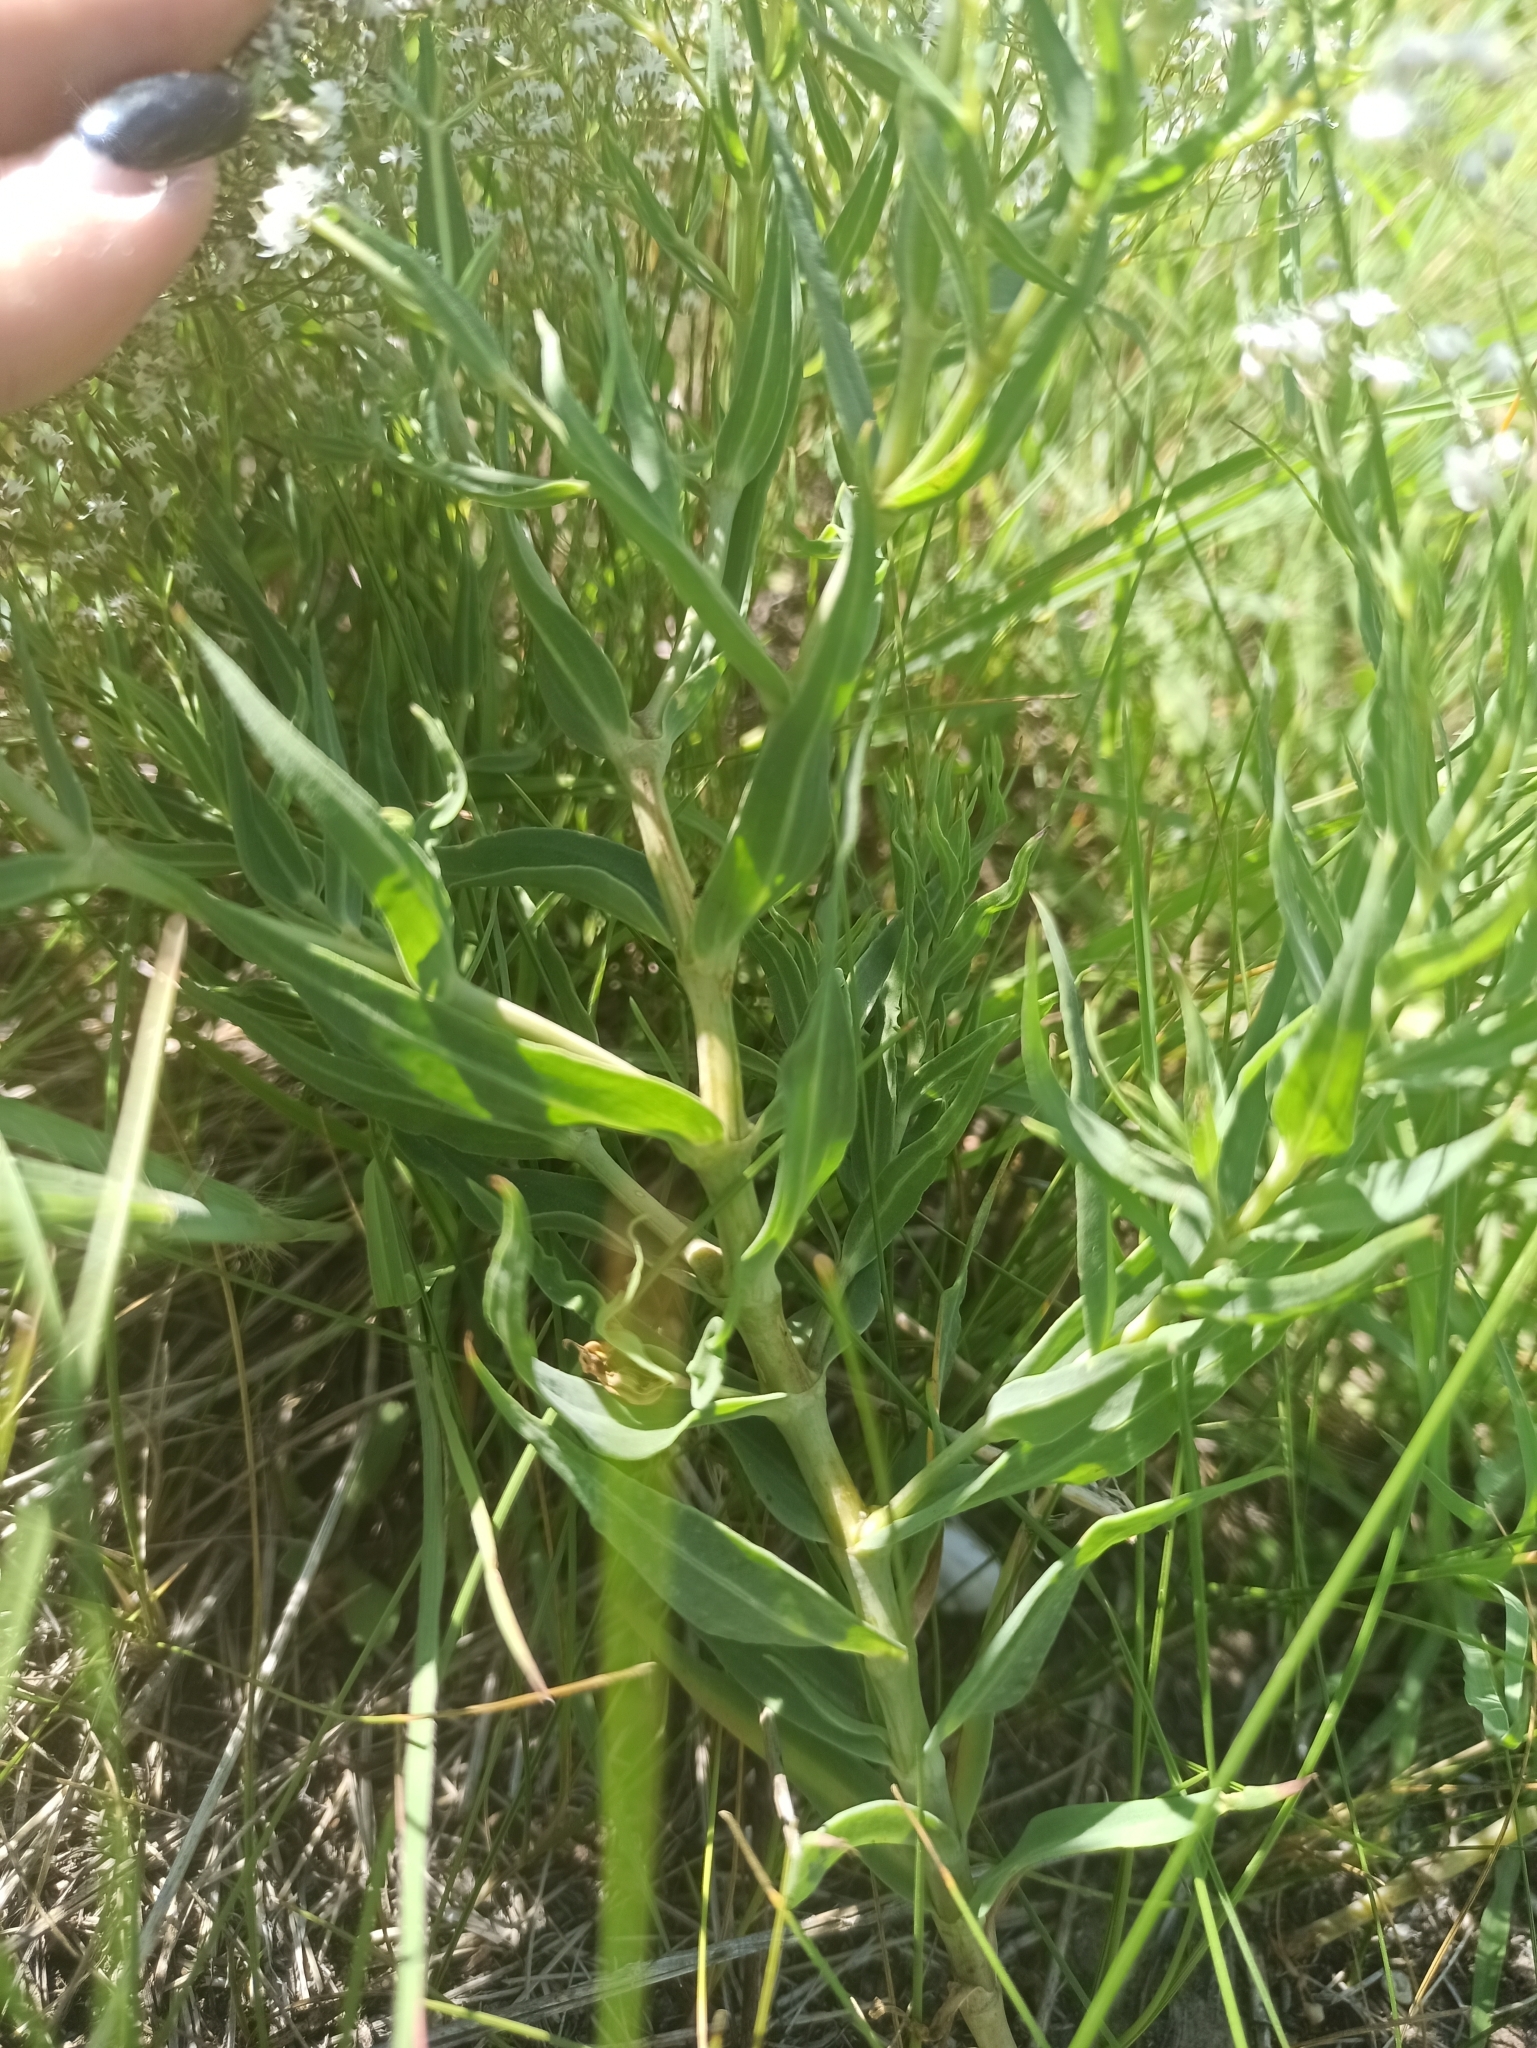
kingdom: Plantae
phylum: Tracheophyta
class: Magnoliopsida
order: Caryophyllales
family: Caryophyllaceae
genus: Gypsophila
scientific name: Gypsophila paniculata
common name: Baby's-breath
